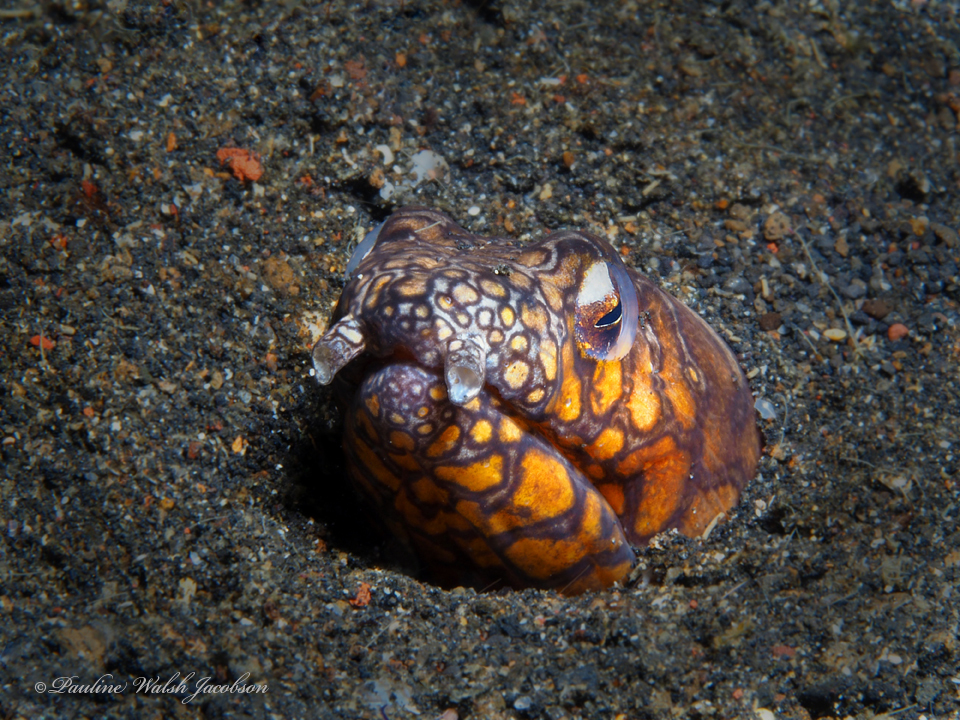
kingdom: Animalia
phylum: Chordata
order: Anguilliformes
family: Ophichthidae
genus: Ophichthus
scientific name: Ophichthus bonaparti
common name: Napoleon snake eel
